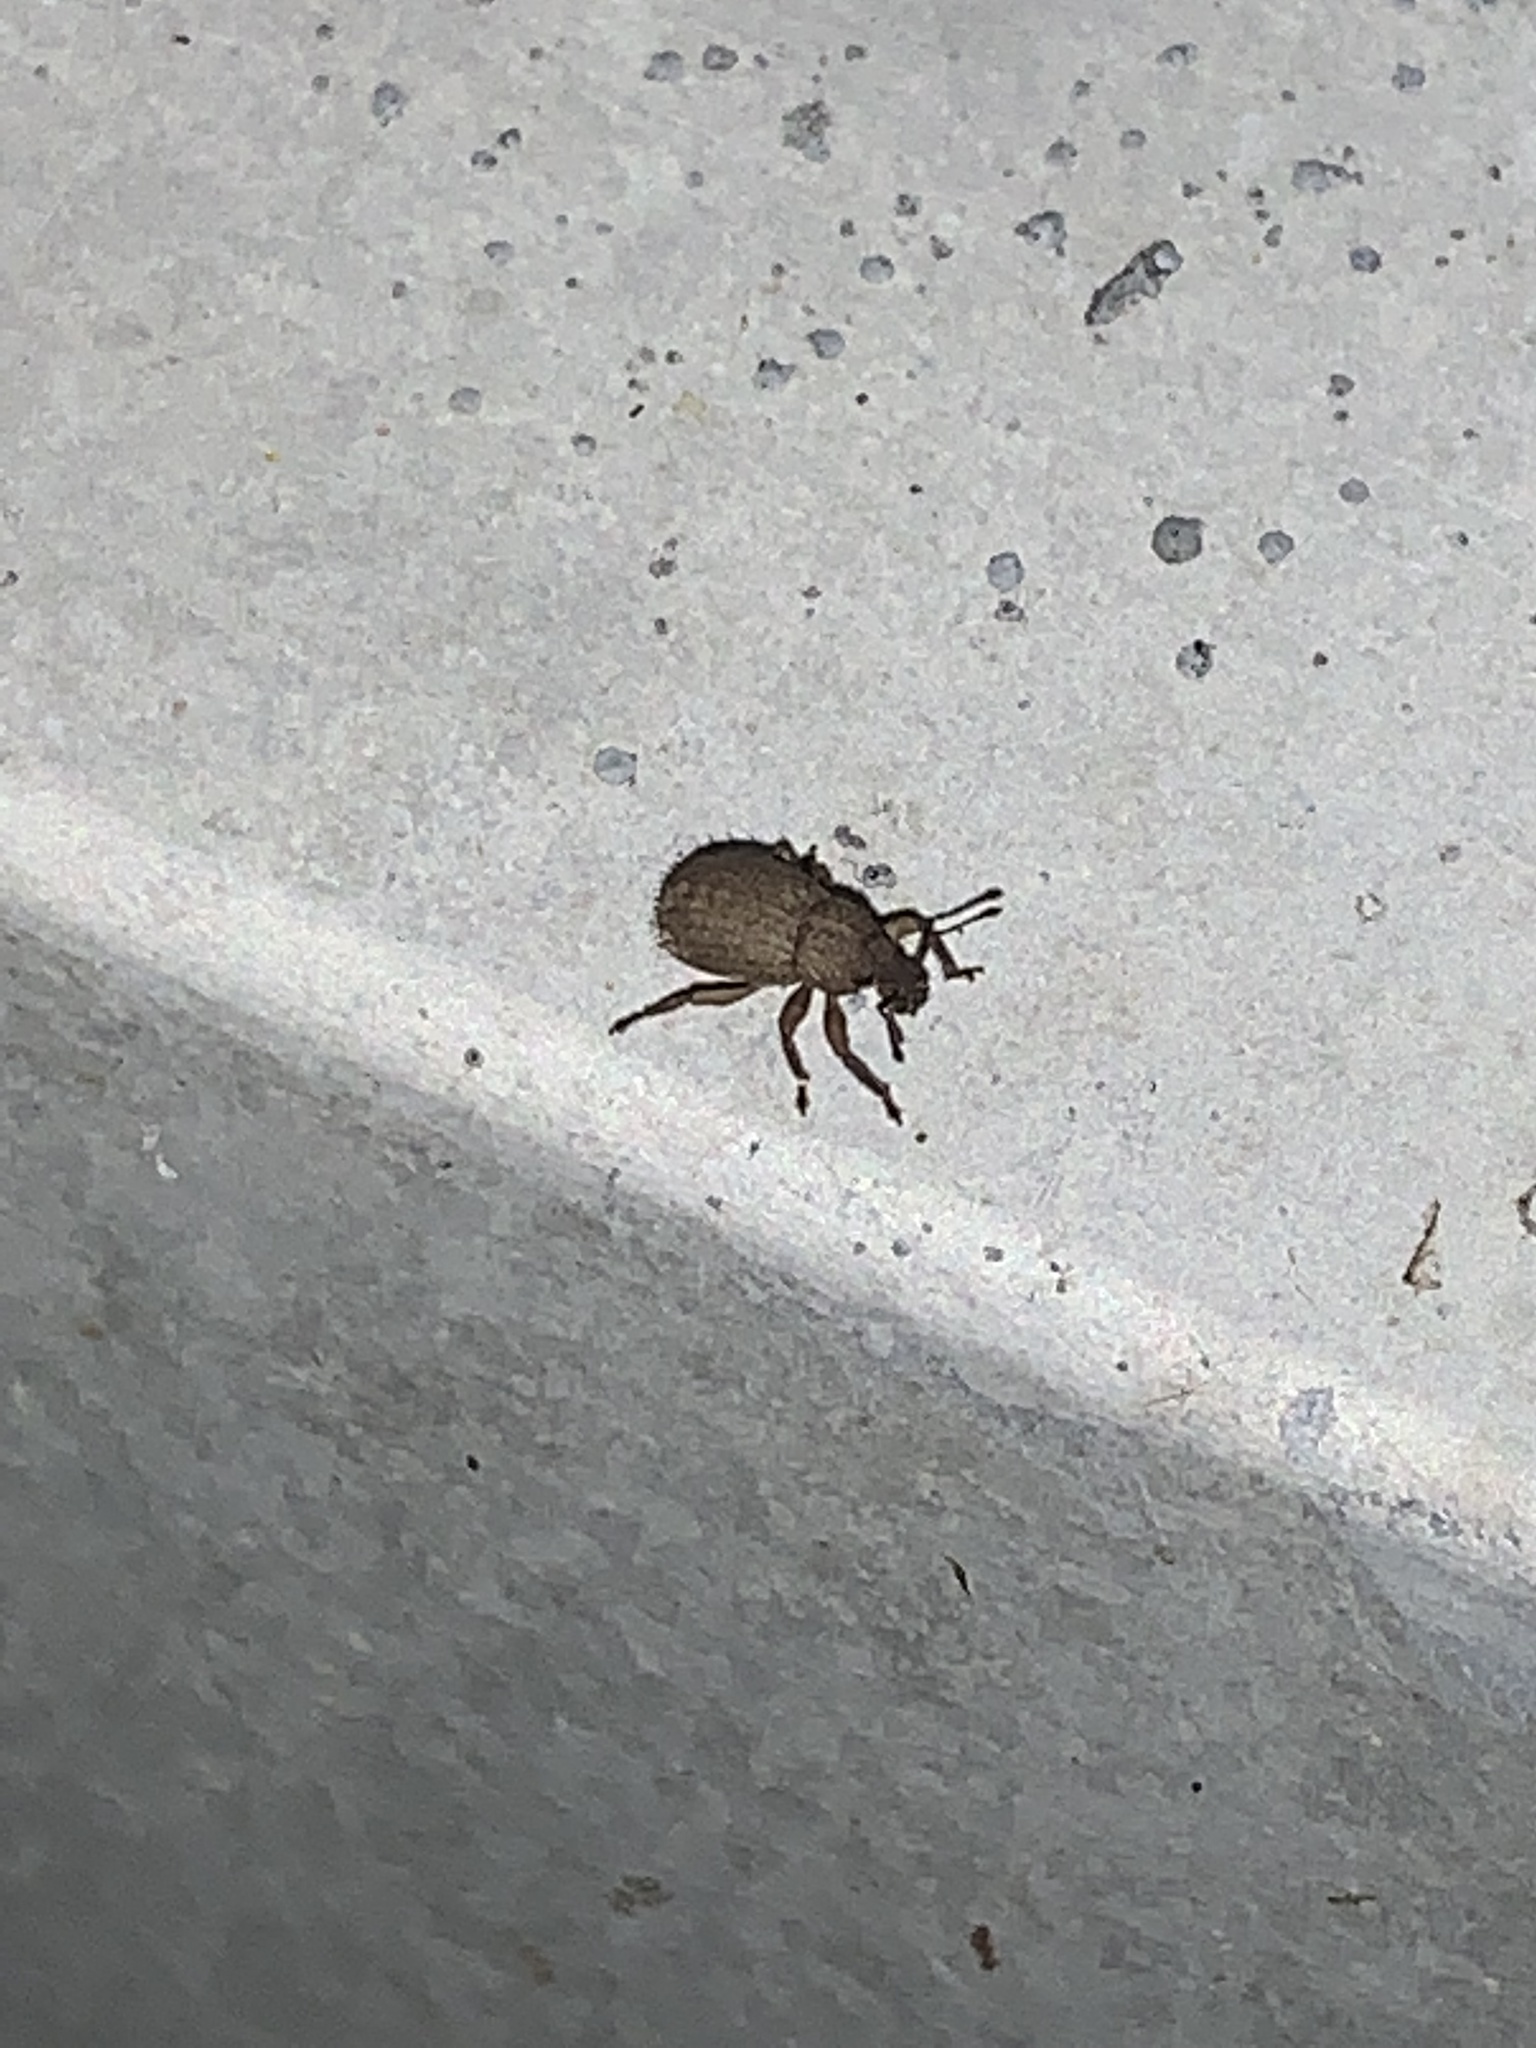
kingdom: Animalia
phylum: Arthropoda
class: Insecta
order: Coleoptera
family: Curculionidae
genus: Phyxelis
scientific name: Phyxelis rigidus
